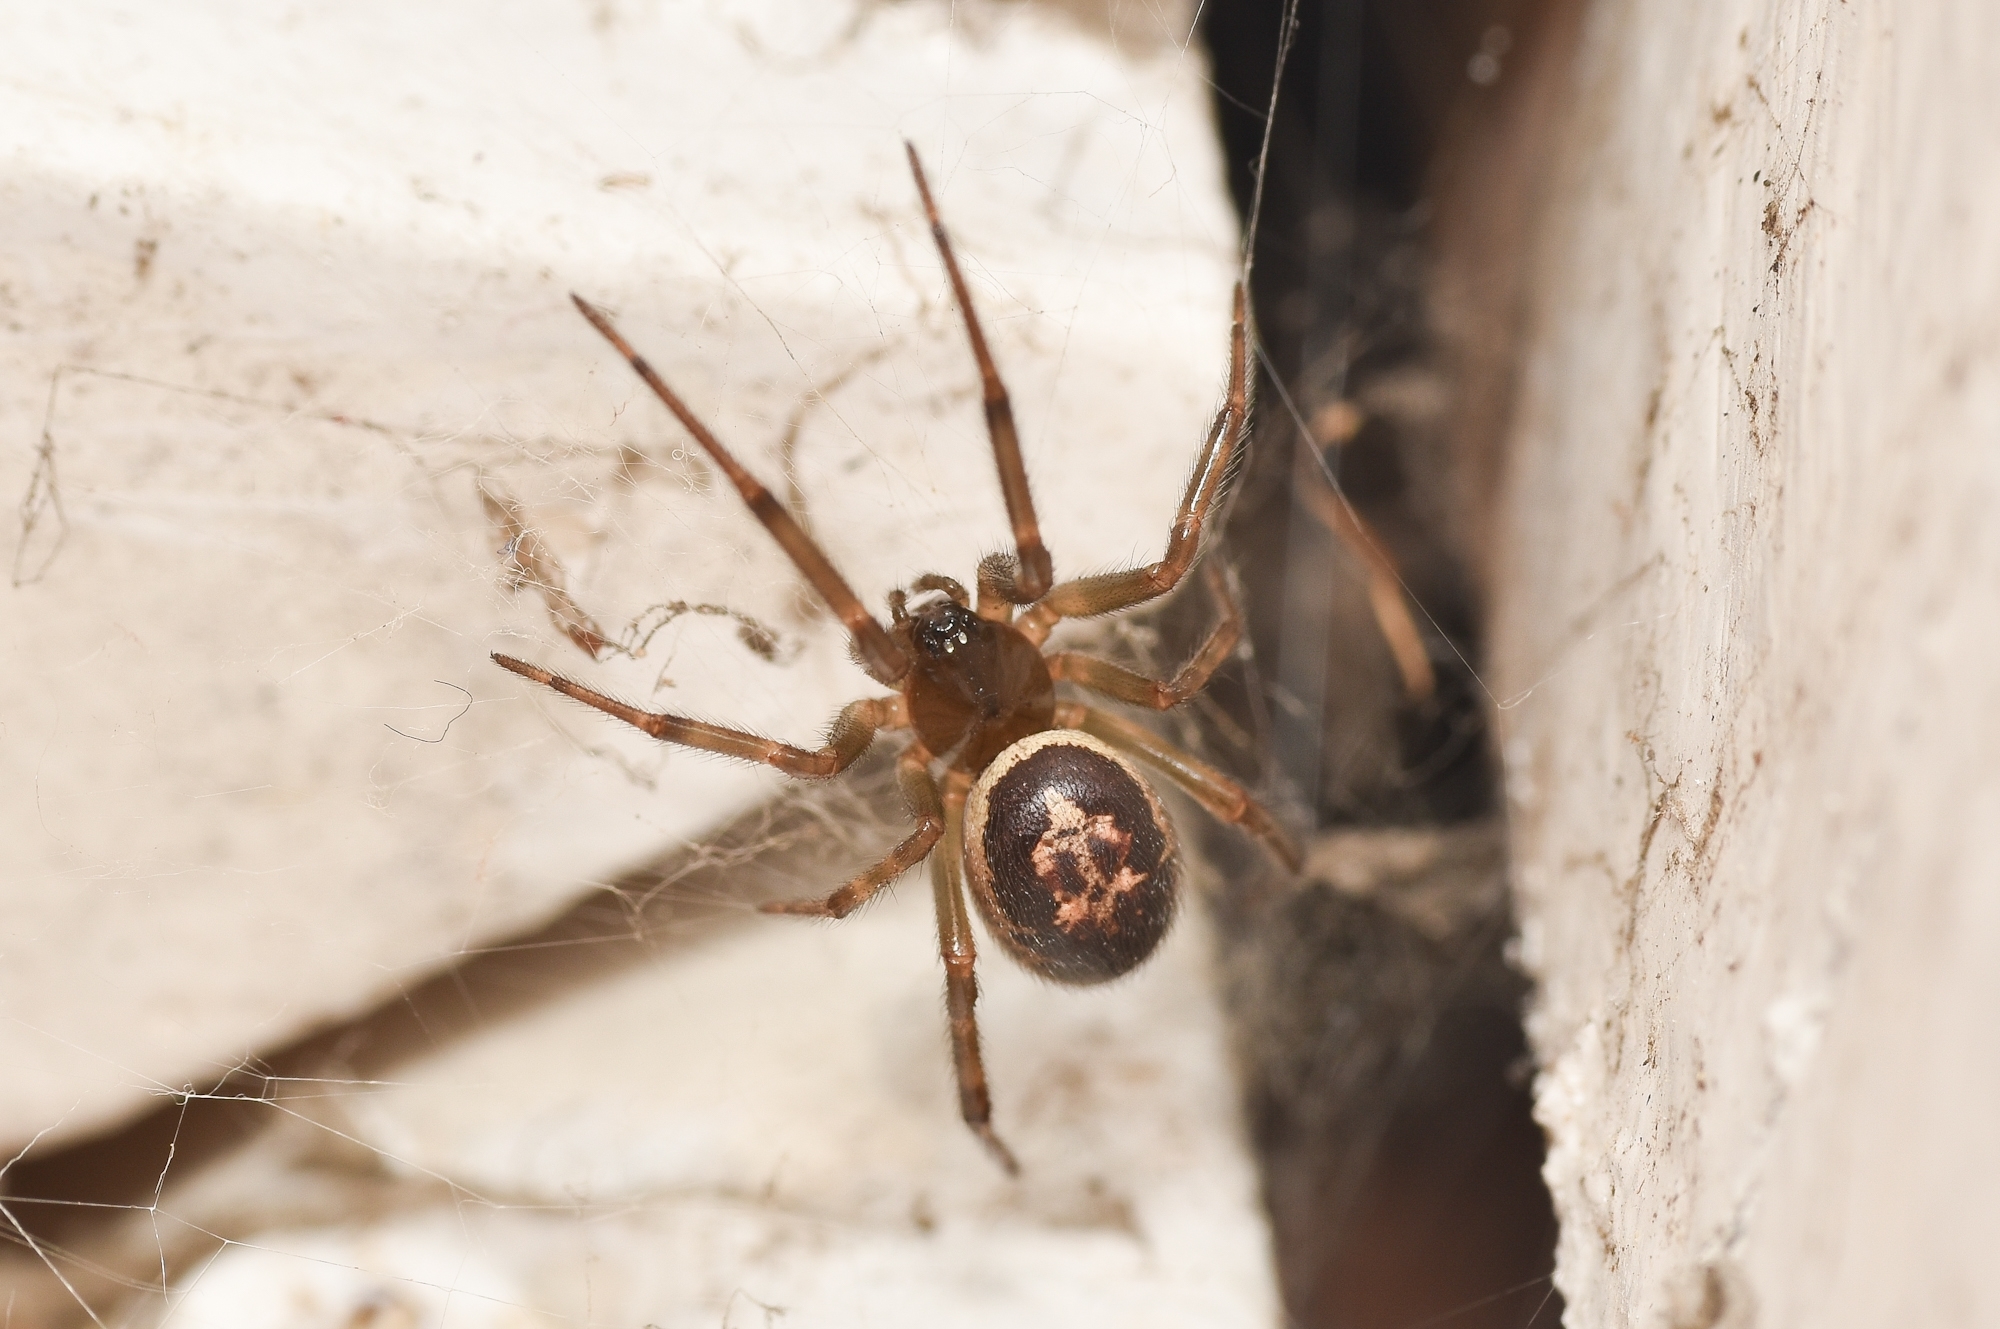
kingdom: Animalia
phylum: Arthropoda
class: Arachnida
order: Araneae
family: Theridiidae
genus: Steatoda
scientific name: Steatoda nobilis
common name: Cobweb weaver
